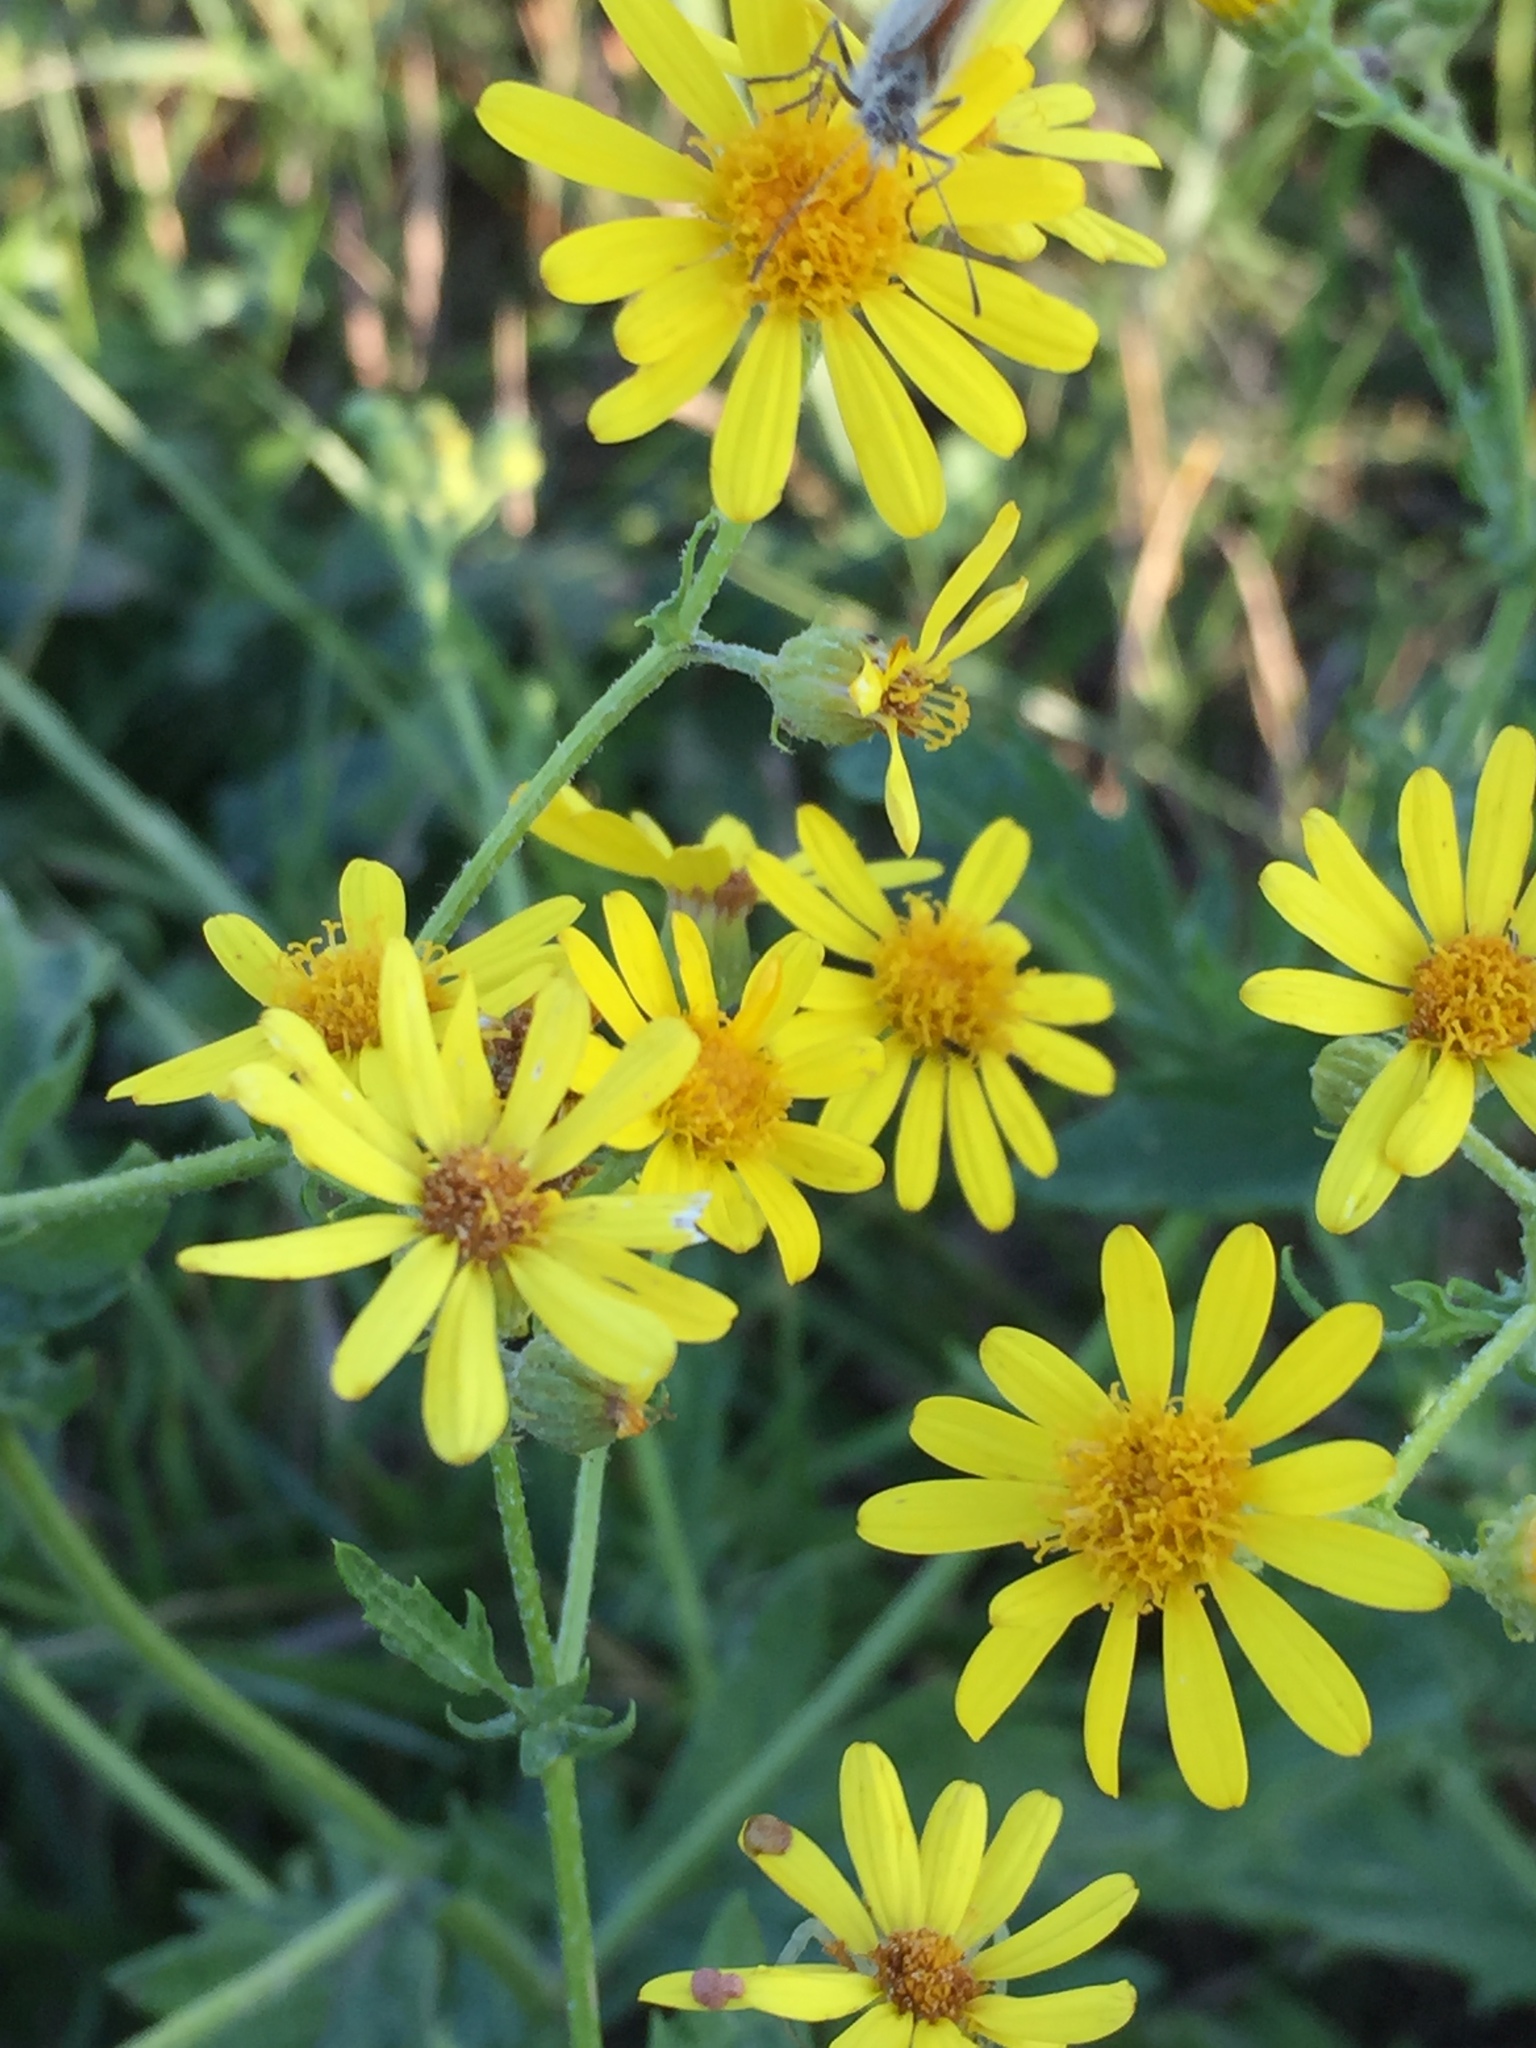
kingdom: Plantae
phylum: Tracheophyta
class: Magnoliopsida
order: Asterales
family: Asteraceae
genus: Jacobaea
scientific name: Jacobaea erucifolia
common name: Hoary ragwort
